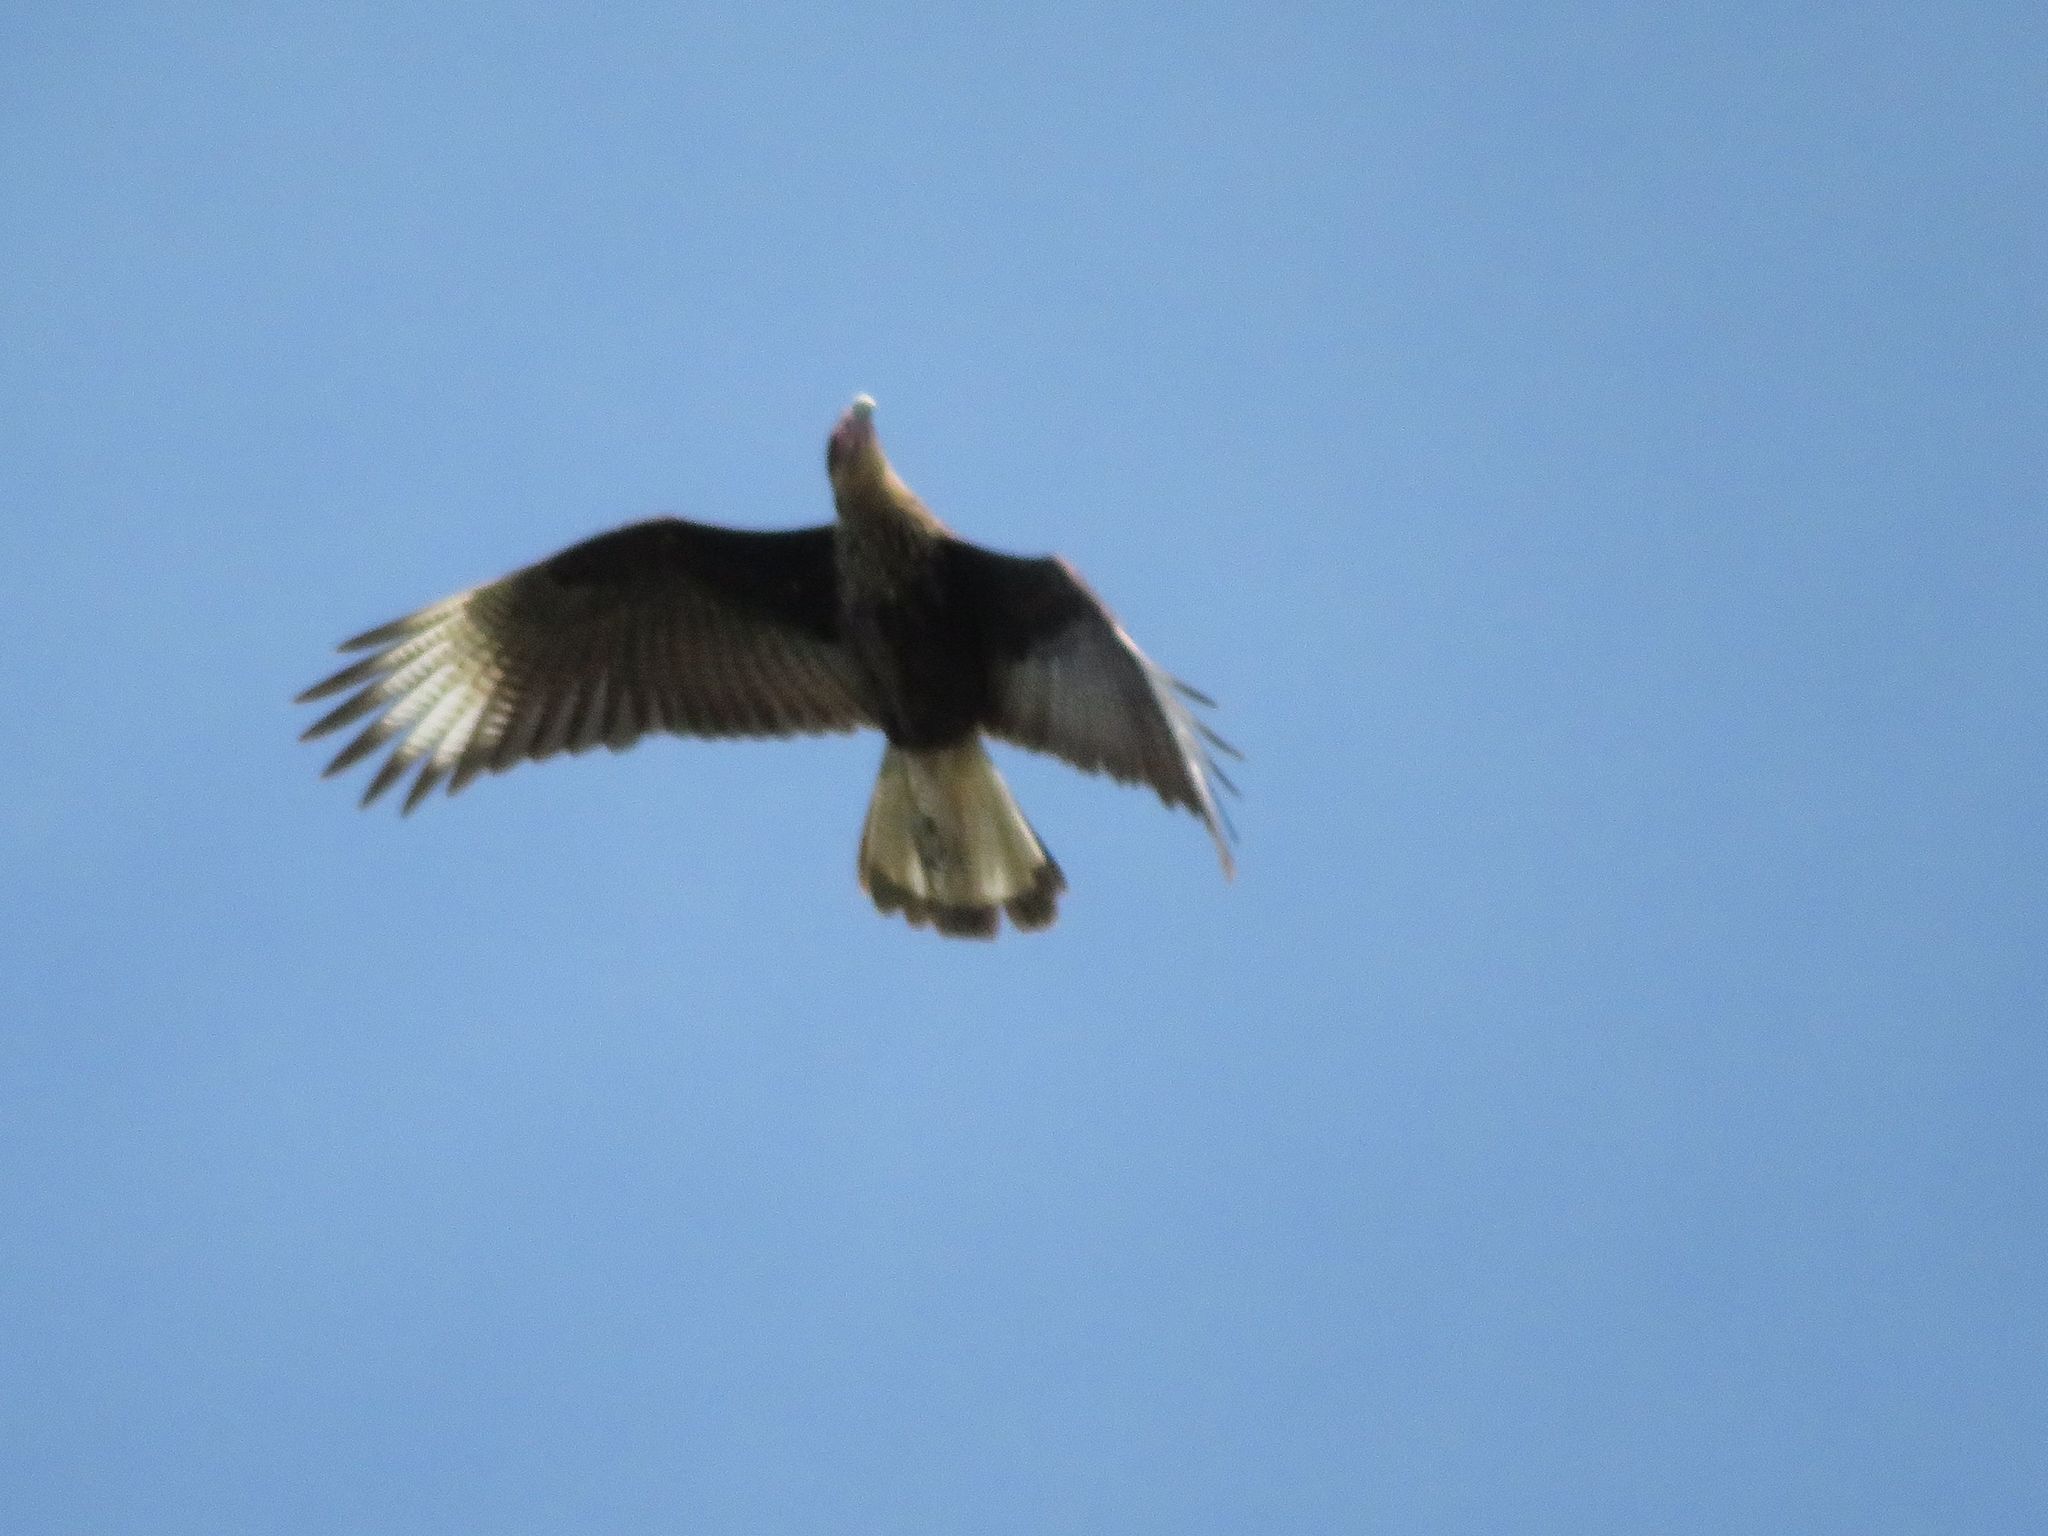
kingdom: Animalia
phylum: Chordata
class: Aves
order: Falconiformes
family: Falconidae
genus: Caracara
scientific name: Caracara plancus
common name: Southern caracara
